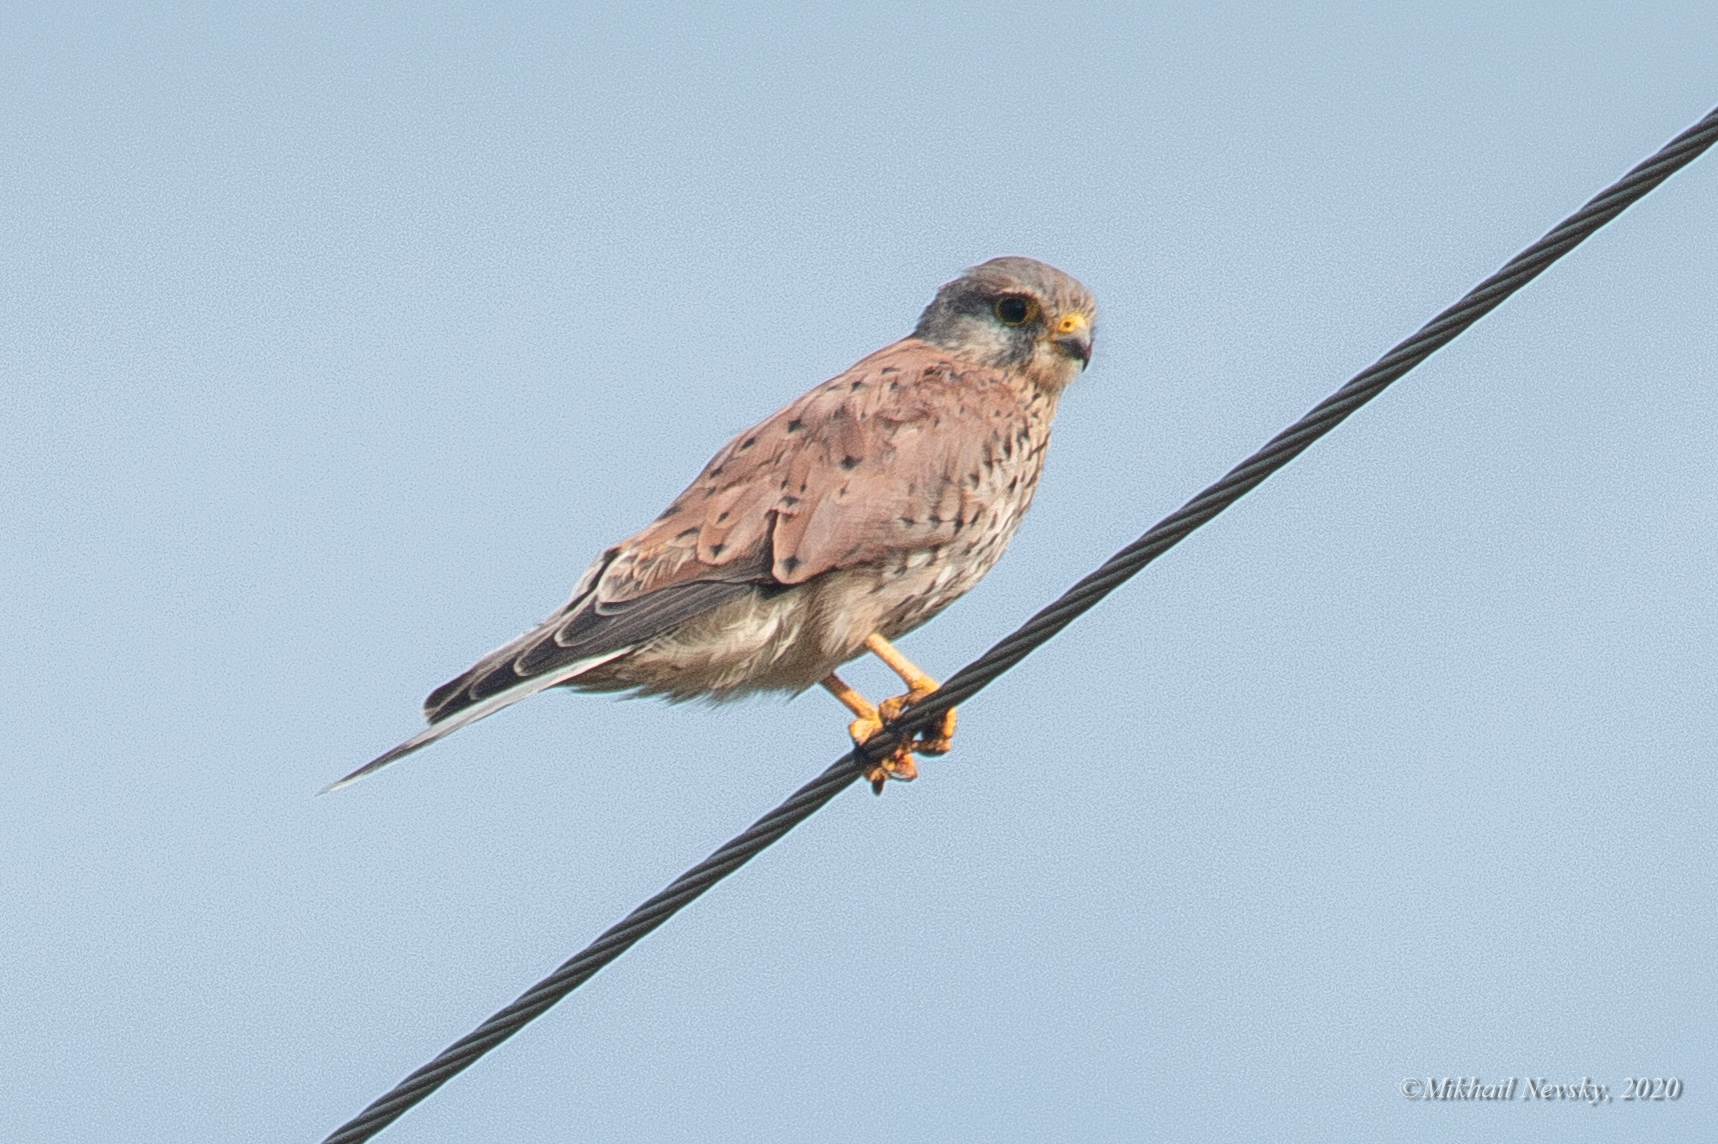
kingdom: Animalia
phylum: Chordata
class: Aves
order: Falconiformes
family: Falconidae
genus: Falco
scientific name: Falco tinnunculus
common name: Common kestrel
